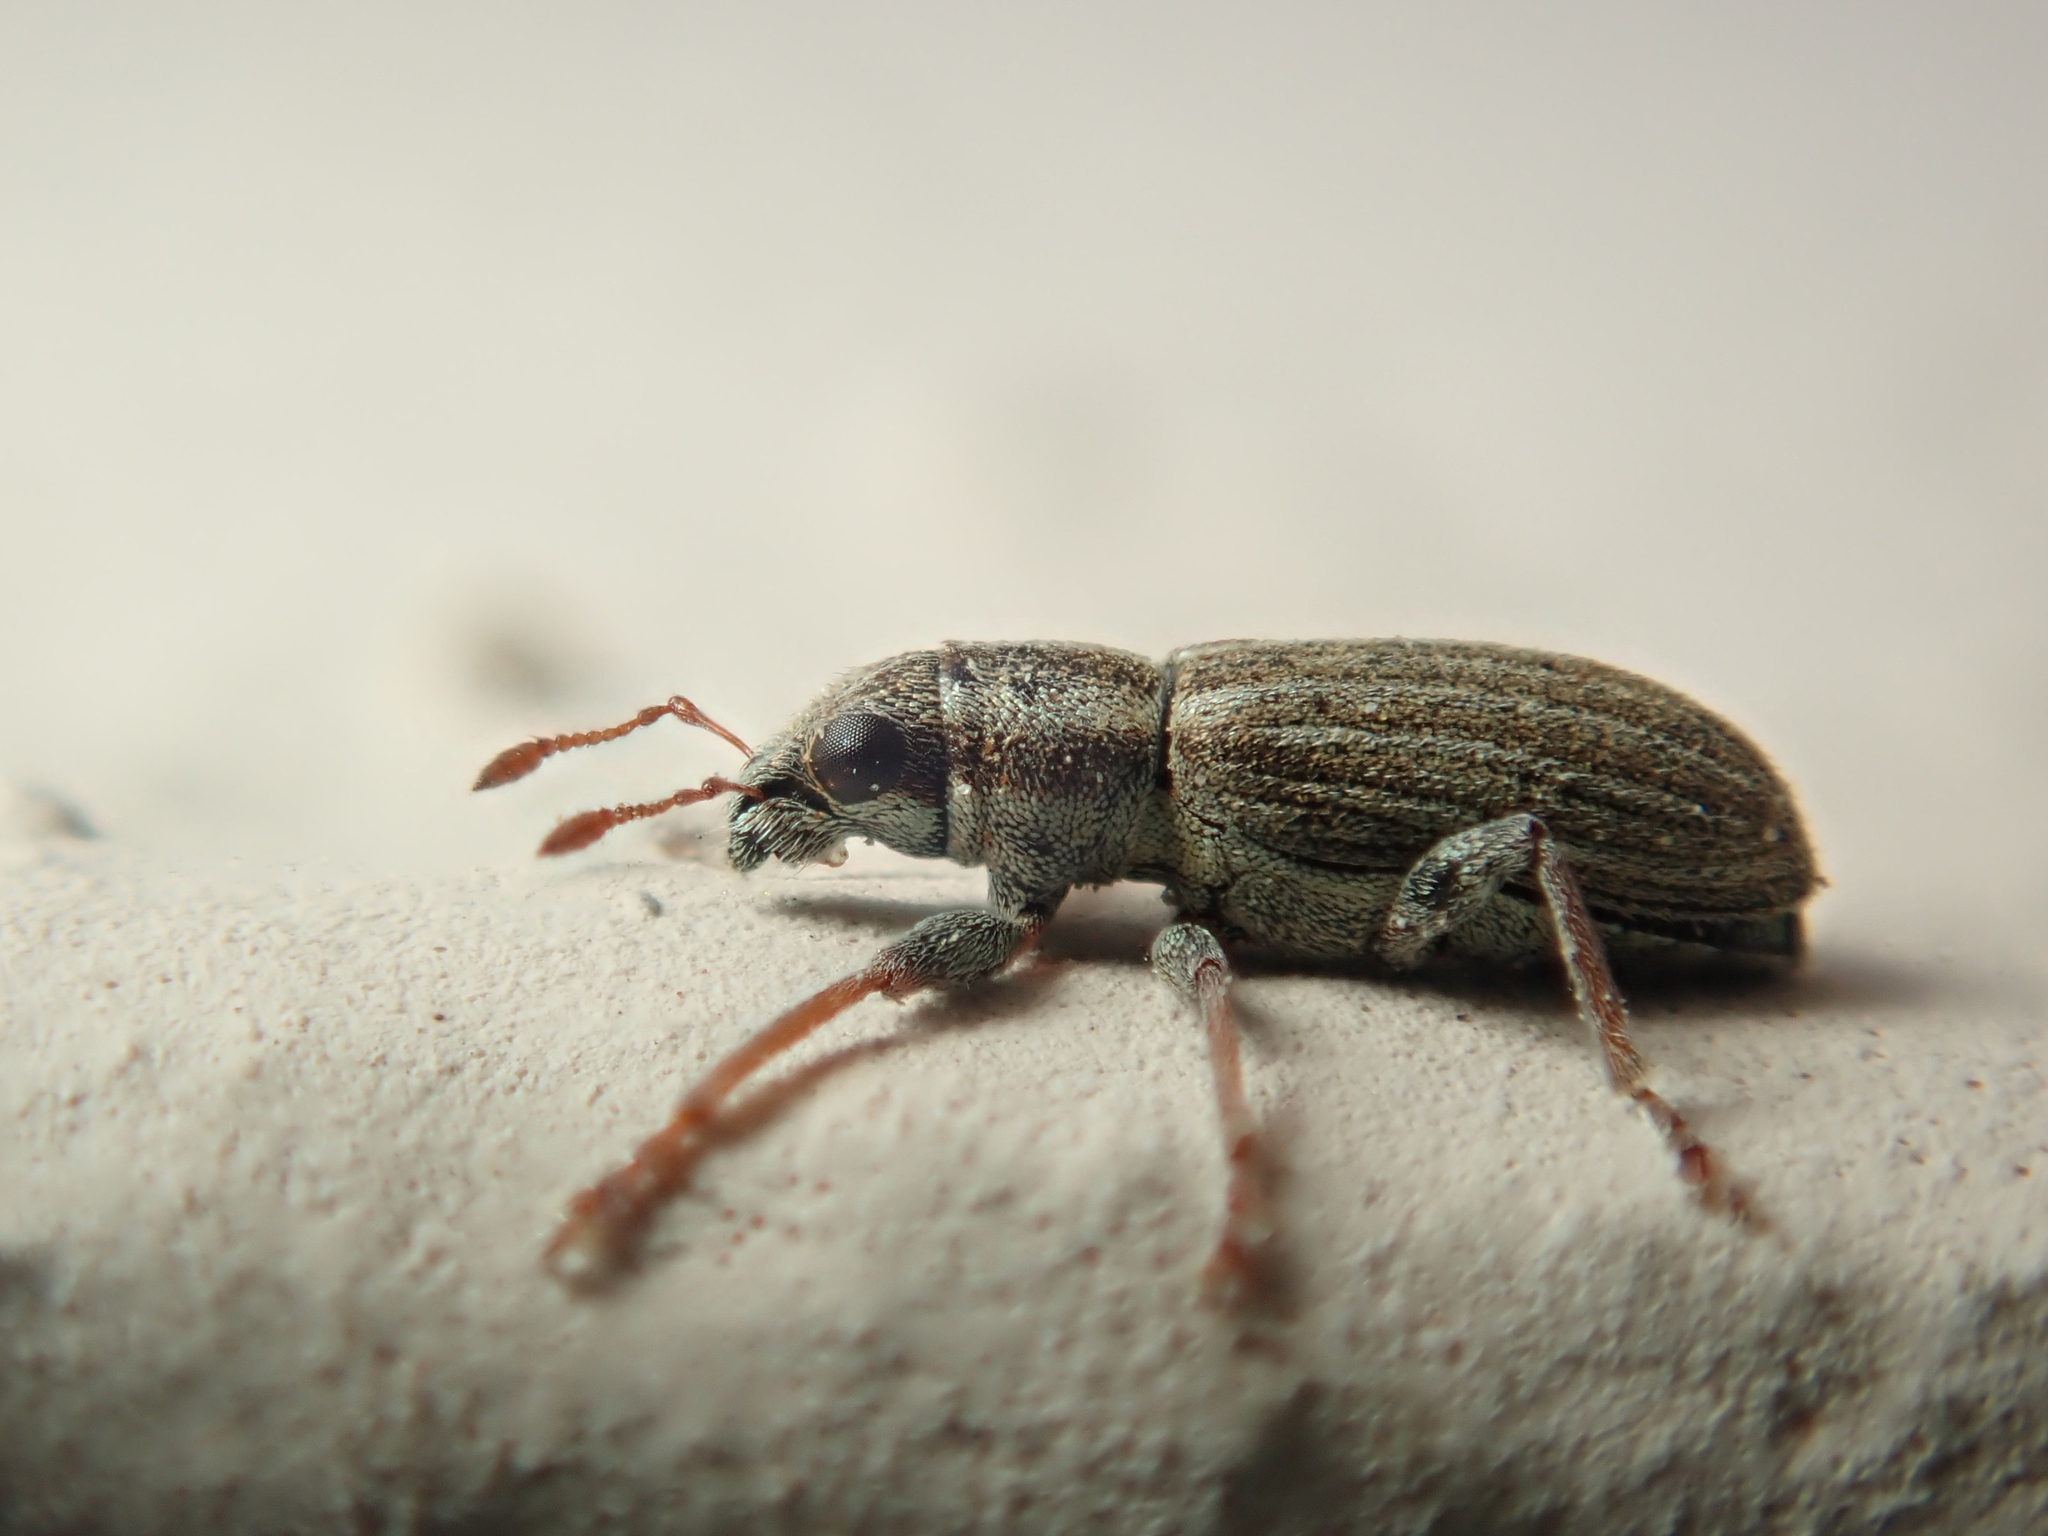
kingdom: Animalia
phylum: Arthropoda
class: Insecta
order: Coleoptera
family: Curculionidae
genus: Sitona
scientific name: Sitona lineatus
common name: Weevil
